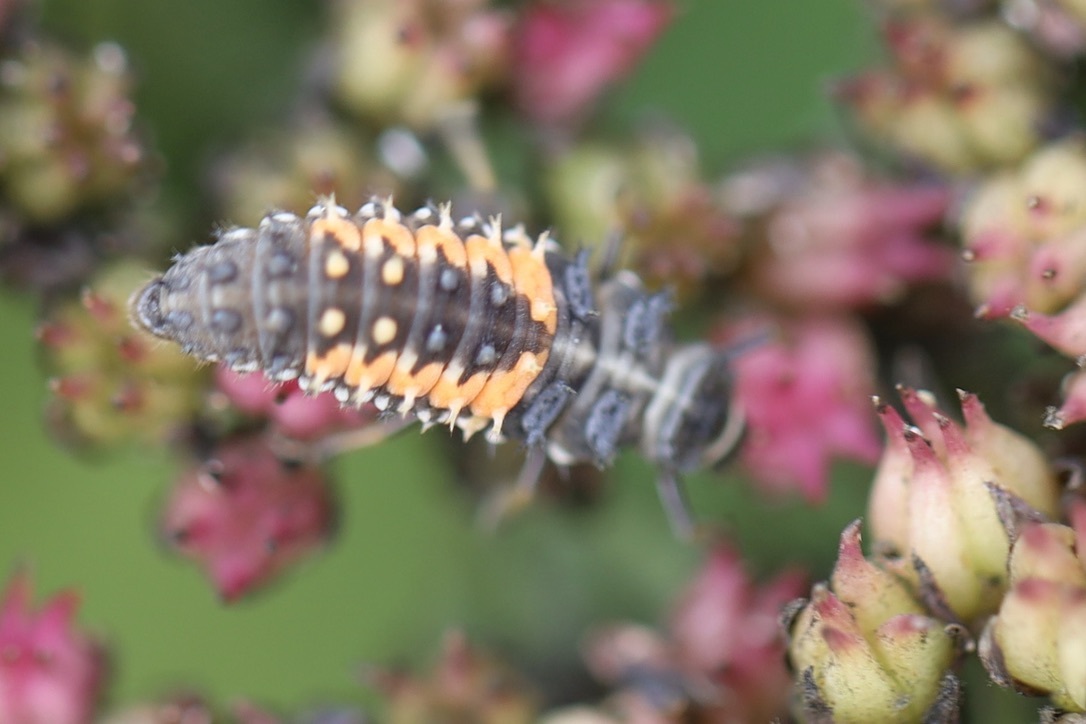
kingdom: Animalia
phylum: Arthropoda
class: Insecta
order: Coleoptera
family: Coccinellidae
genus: Harmonia
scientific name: Harmonia axyridis
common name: Harlequin ladybird
